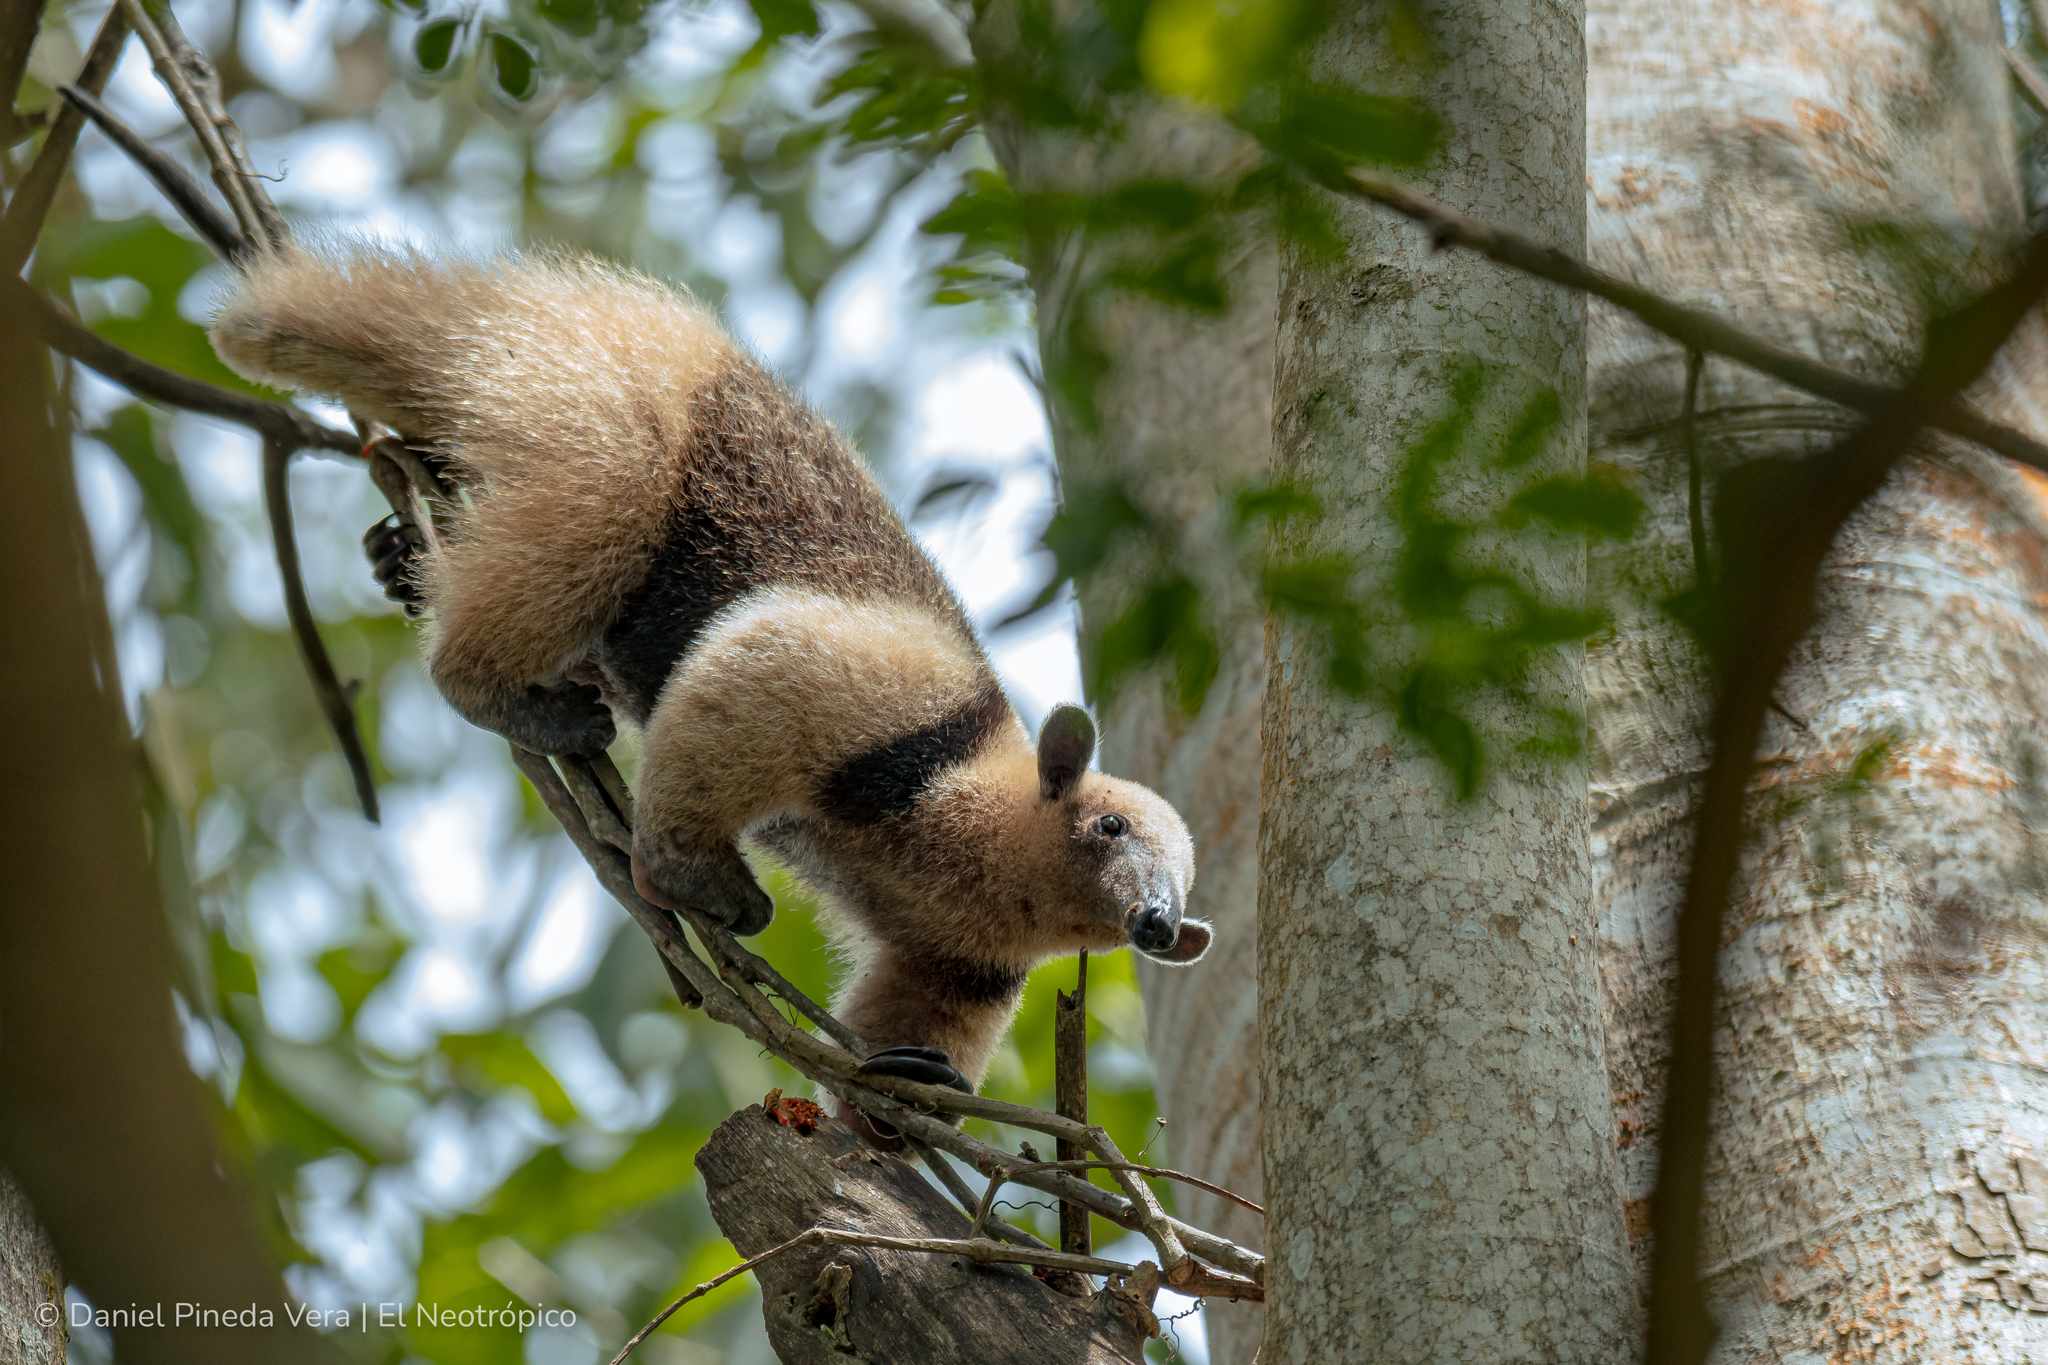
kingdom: Animalia
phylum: Chordata
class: Mammalia
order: Pilosa
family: Myrmecophagidae
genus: Tamandua
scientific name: Tamandua mexicana
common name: Northern tamandua
